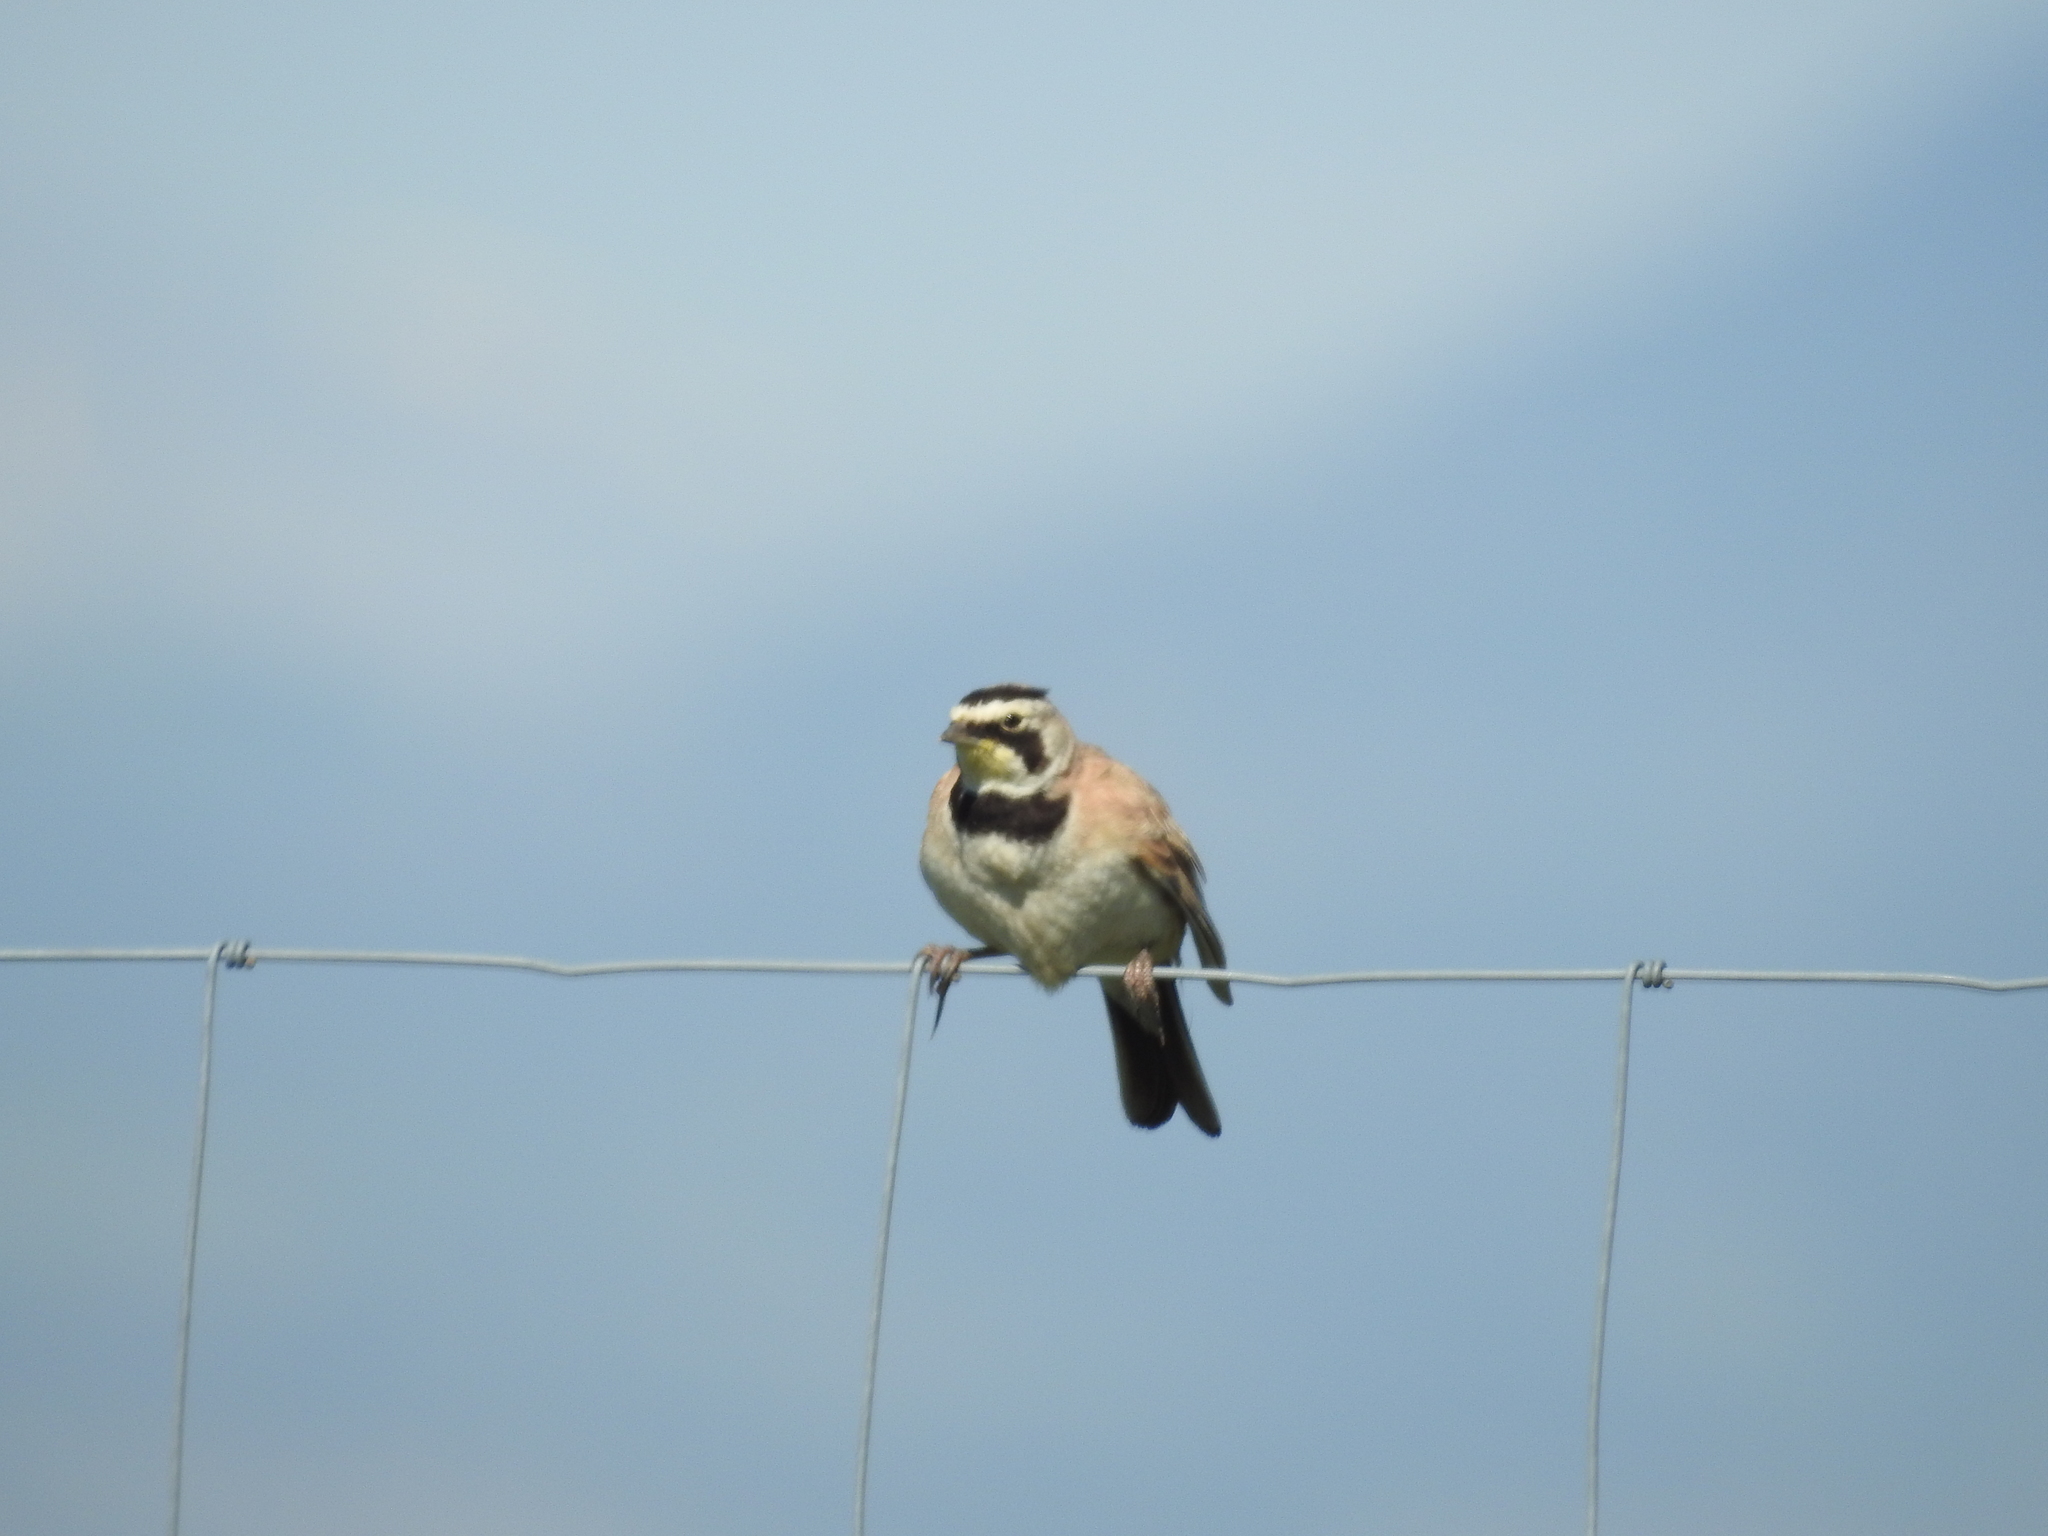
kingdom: Animalia
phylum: Chordata
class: Aves
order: Passeriformes
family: Alaudidae
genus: Eremophila
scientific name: Eremophila alpestris
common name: Horned lark
